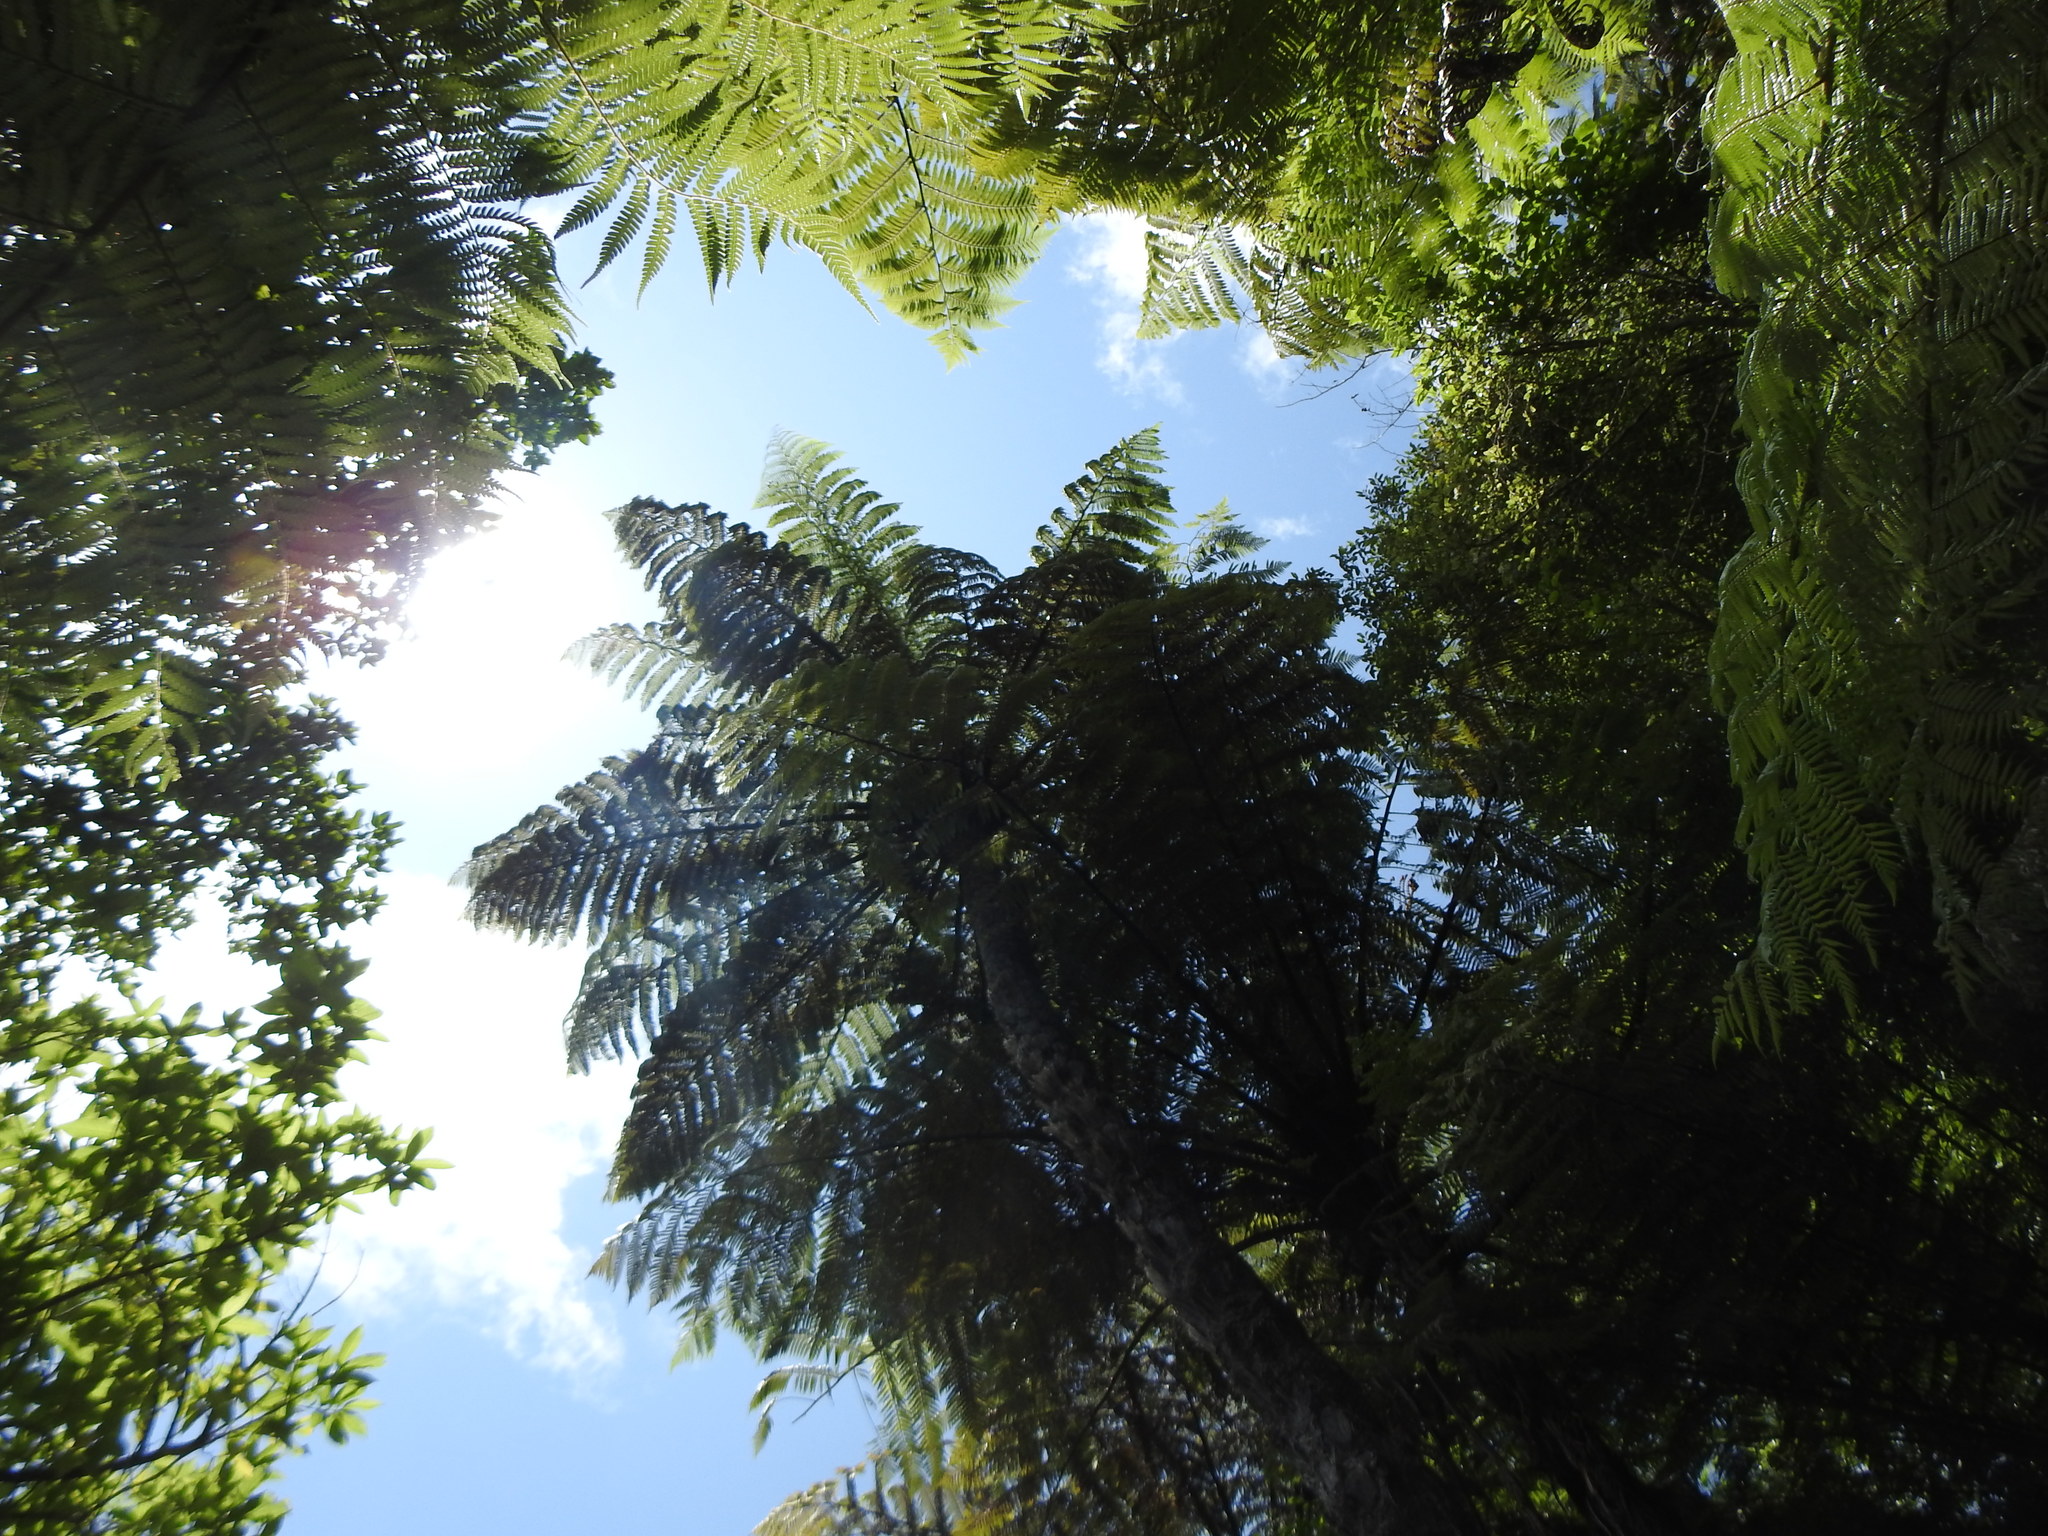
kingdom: Plantae
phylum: Tracheophyta
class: Polypodiopsida
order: Cyatheales
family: Cyatheaceae
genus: Sphaeropteris
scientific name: Sphaeropteris medullaris
